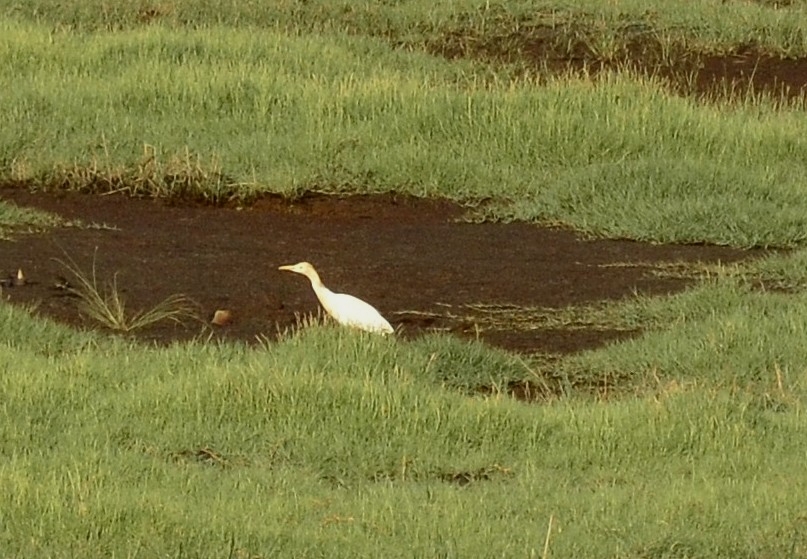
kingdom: Animalia
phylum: Chordata
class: Aves
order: Pelecaniformes
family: Ardeidae
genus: Bubulcus
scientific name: Bubulcus coromandus
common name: Eastern cattle egret
